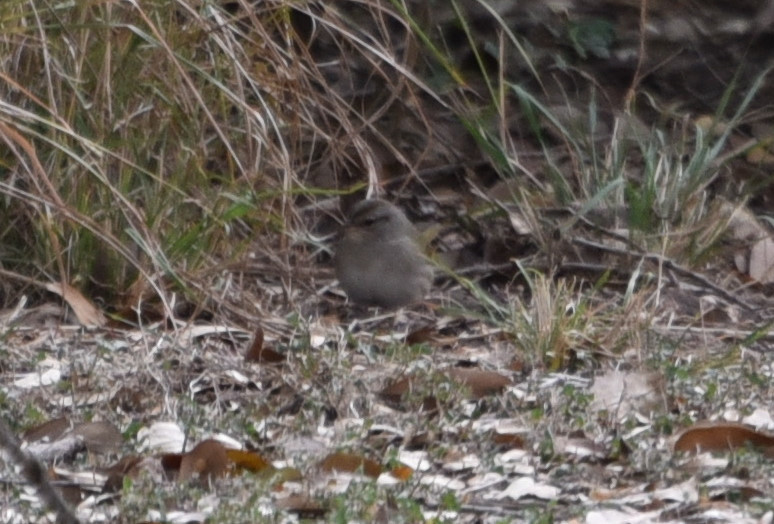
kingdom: Animalia
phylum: Chordata
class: Aves
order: Passeriformes
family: Passerellidae
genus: Arremonops
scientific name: Arremonops rufivirgatus
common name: Olive sparrow
